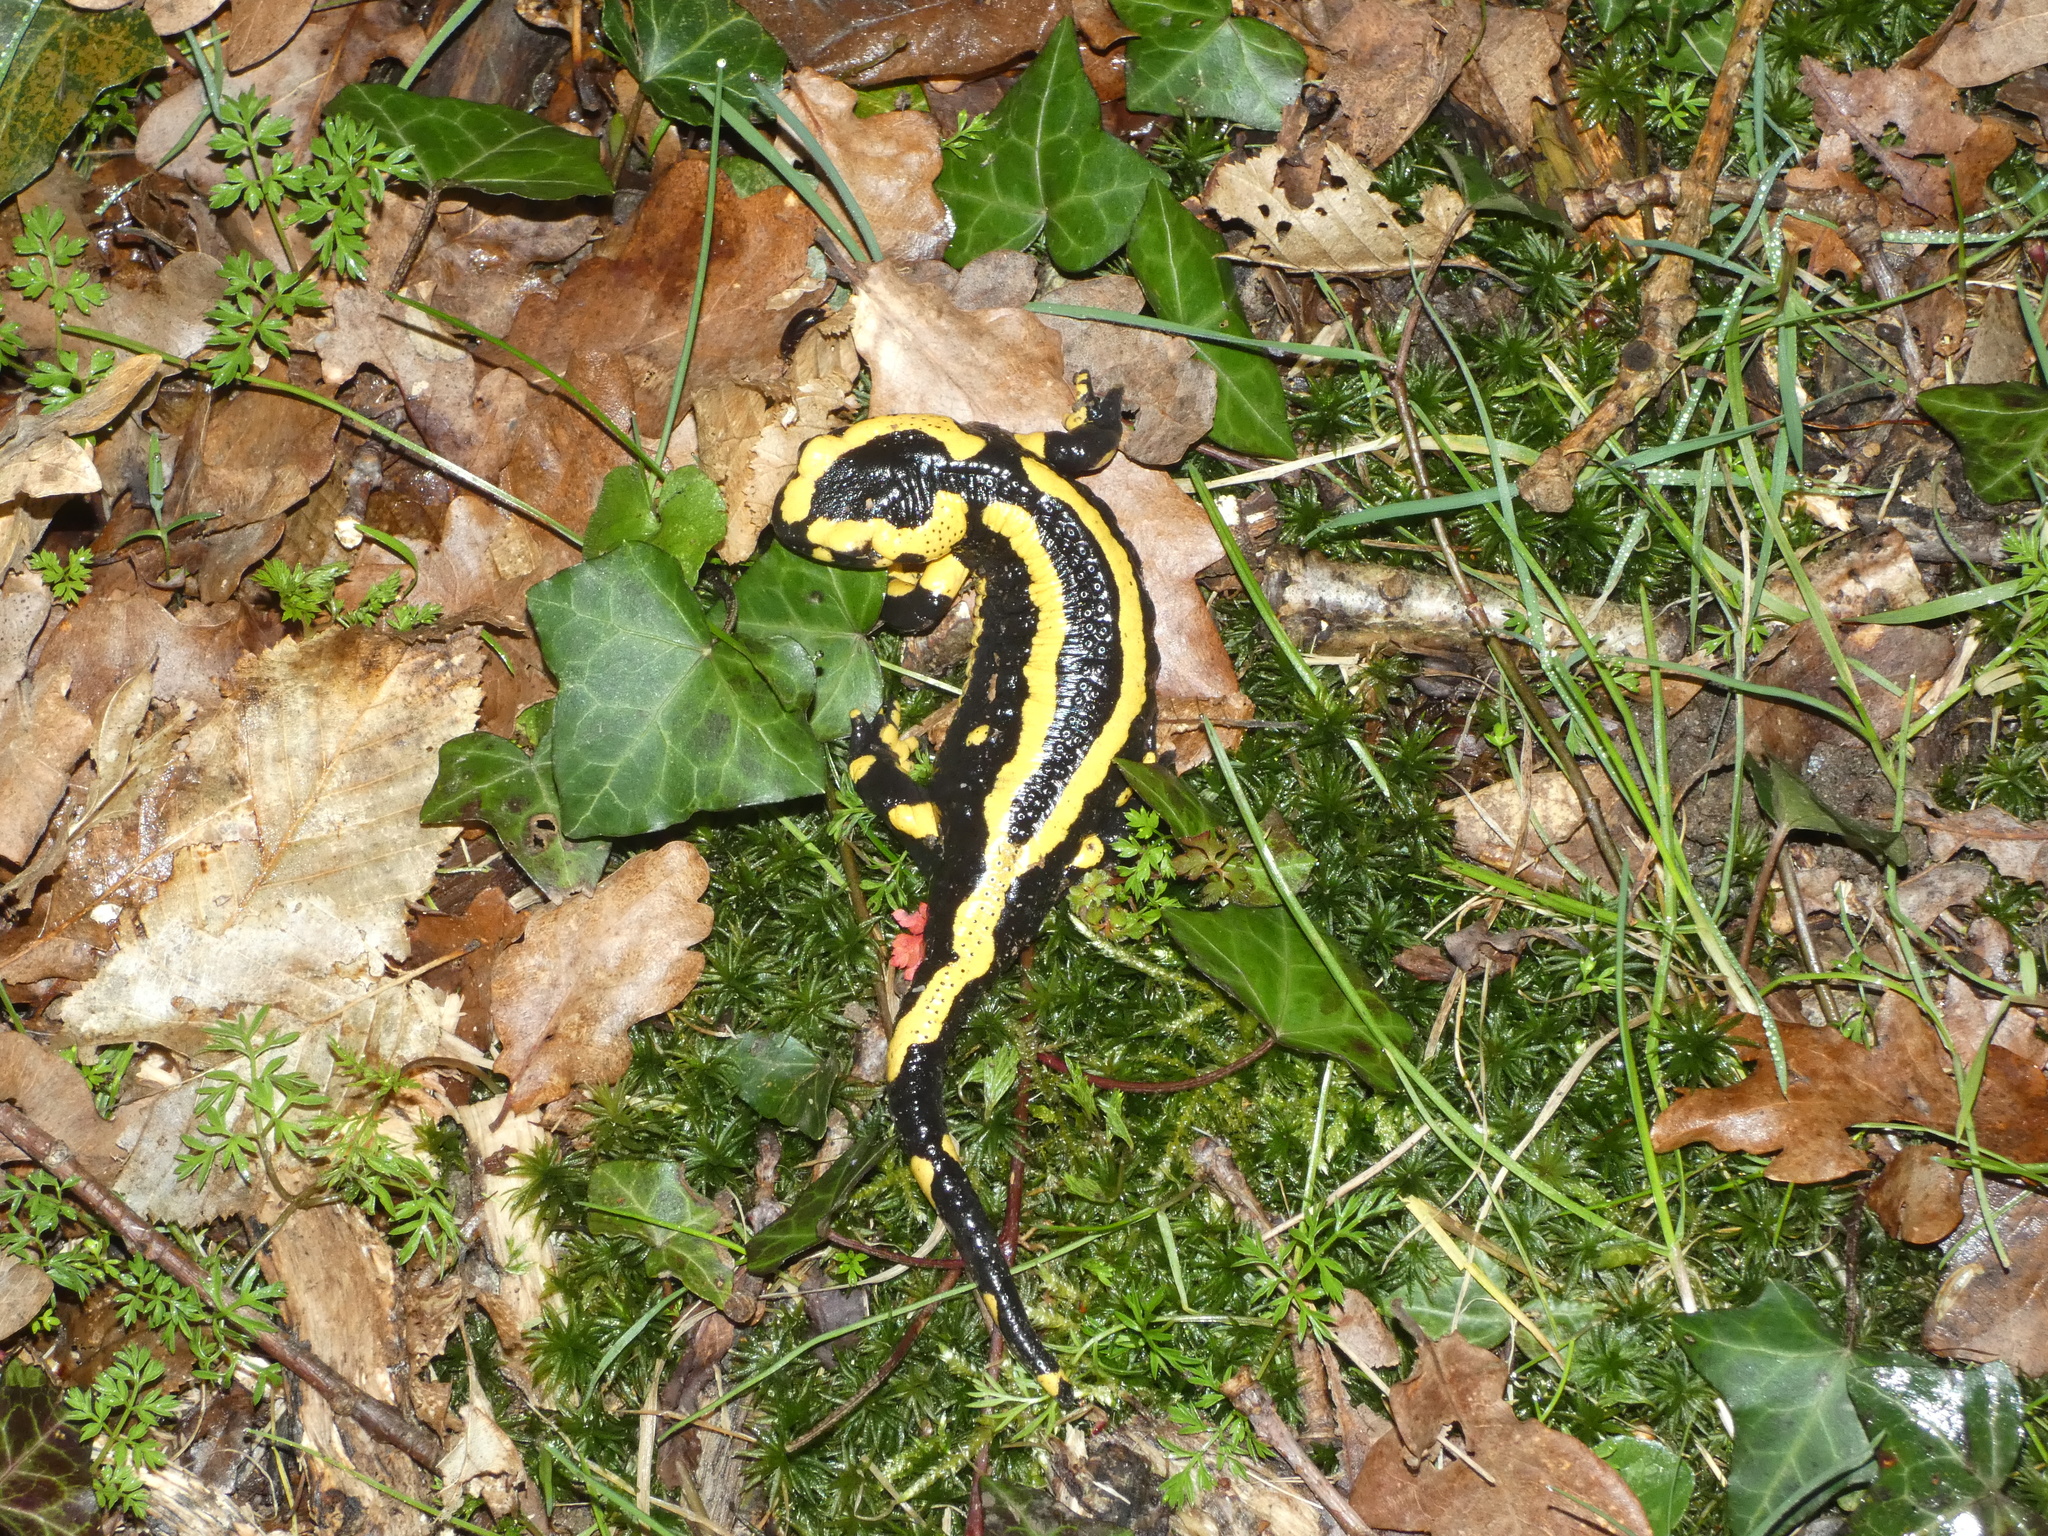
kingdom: Animalia
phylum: Chordata
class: Amphibia
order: Caudata
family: Salamandridae
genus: Salamandra
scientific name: Salamandra salamandra
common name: Fire salamander
